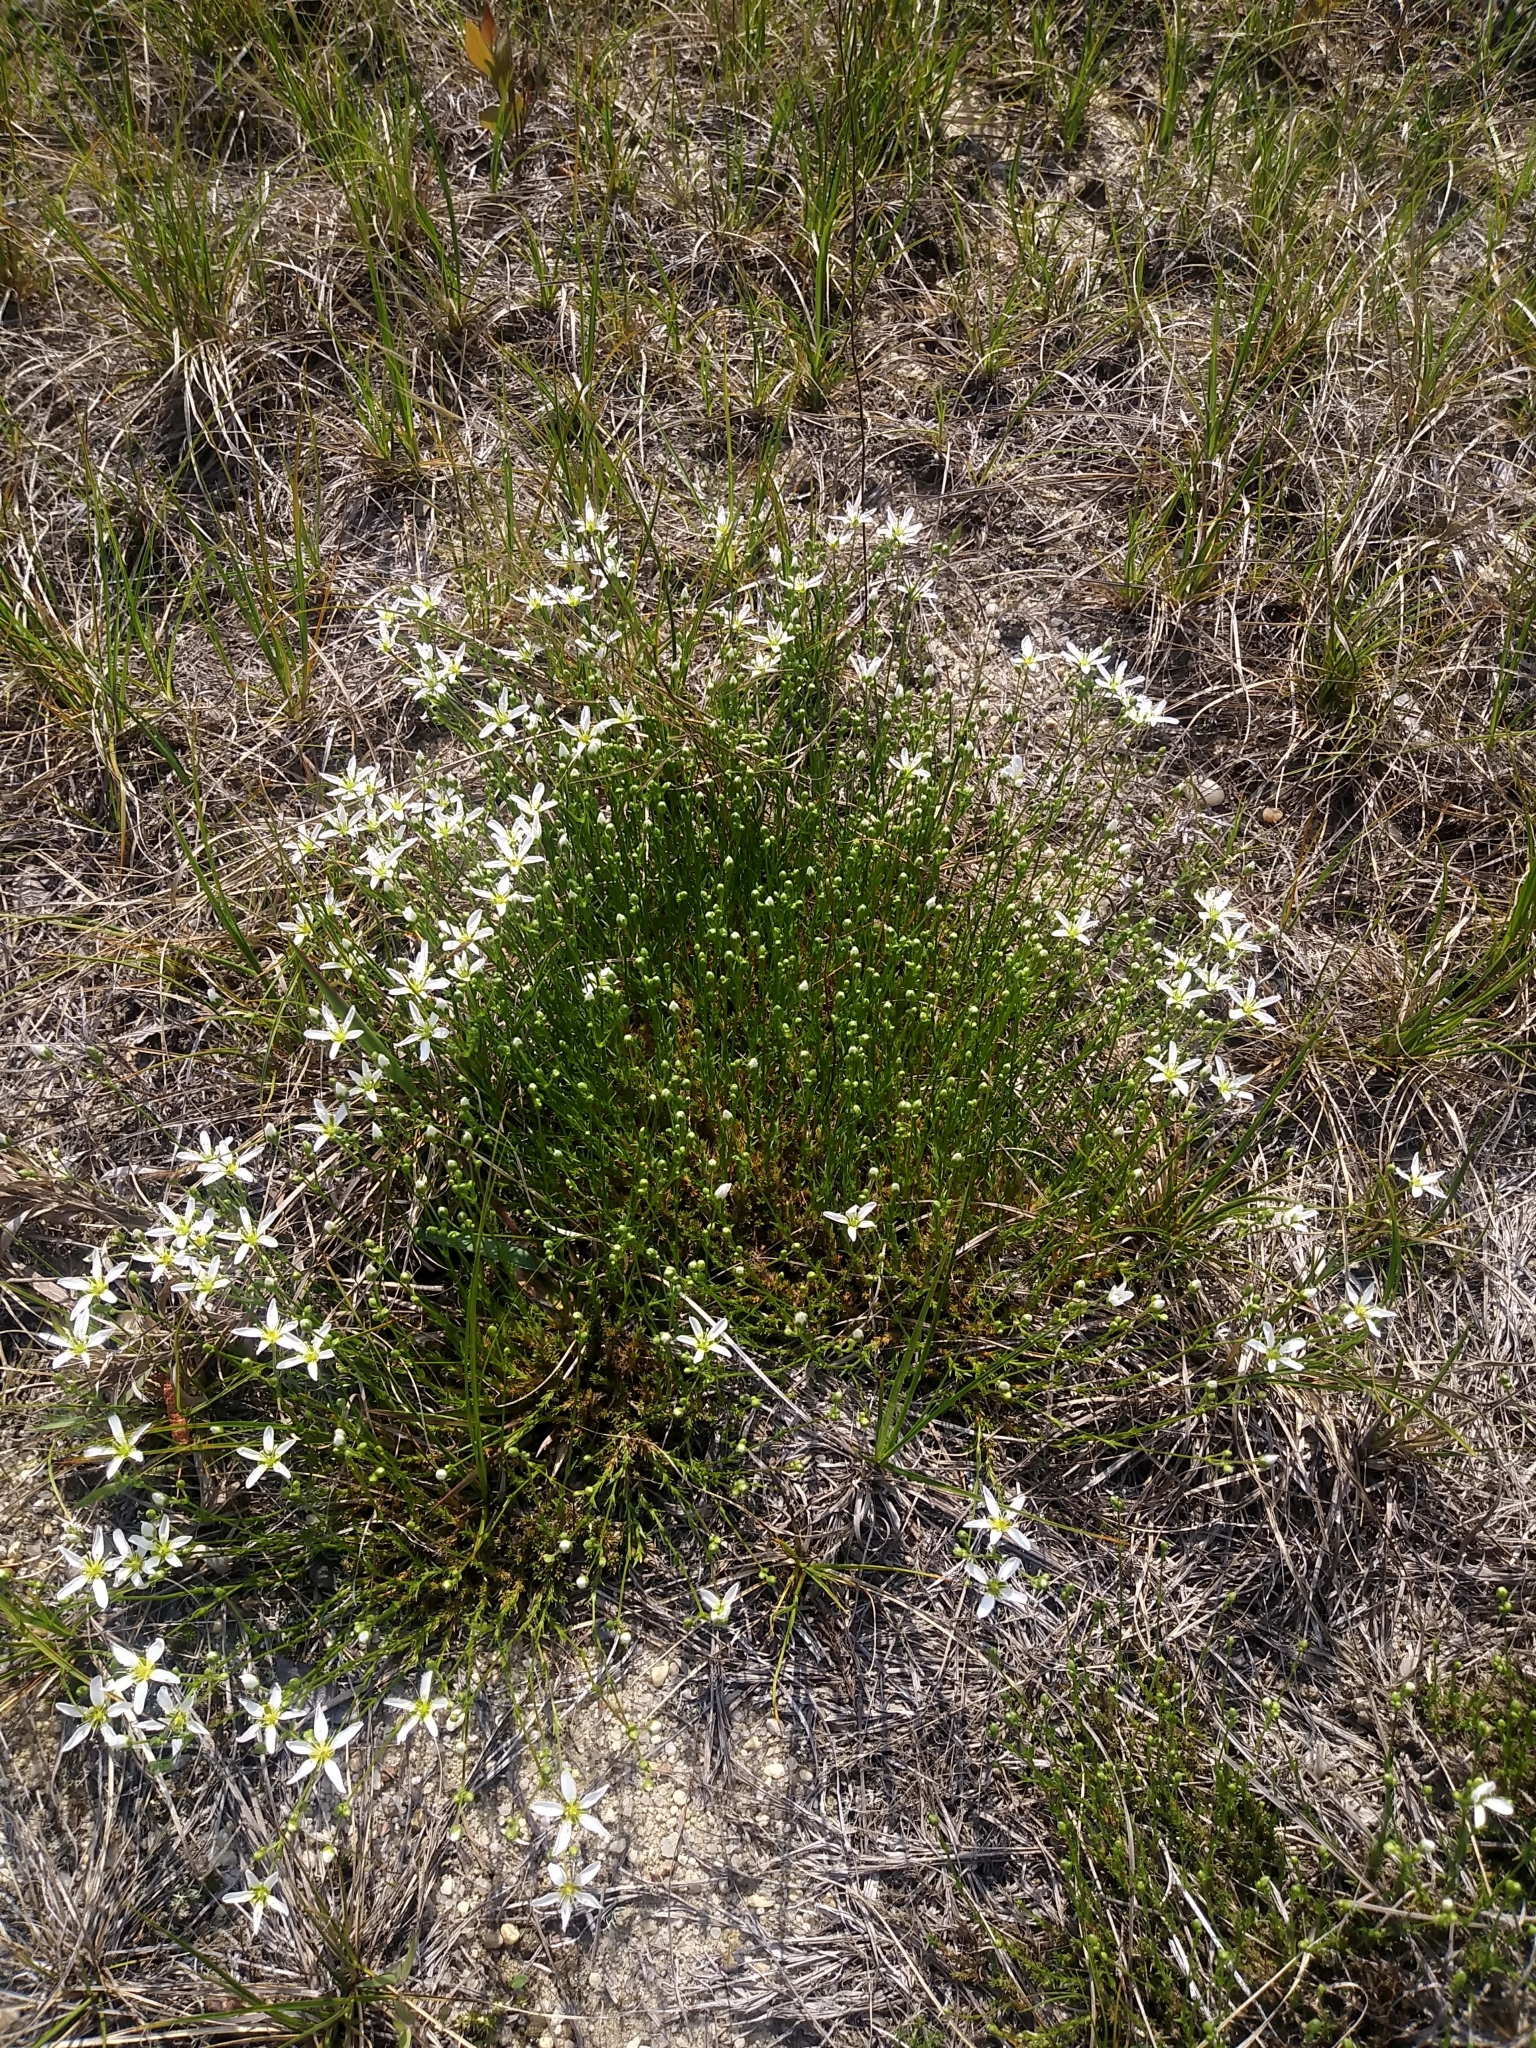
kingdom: Plantae
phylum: Tracheophyta
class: Magnoliopsida
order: Caryophyllales
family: Caryophyllaceae
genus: Geocarpon
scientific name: Geocarpon carolinianum
